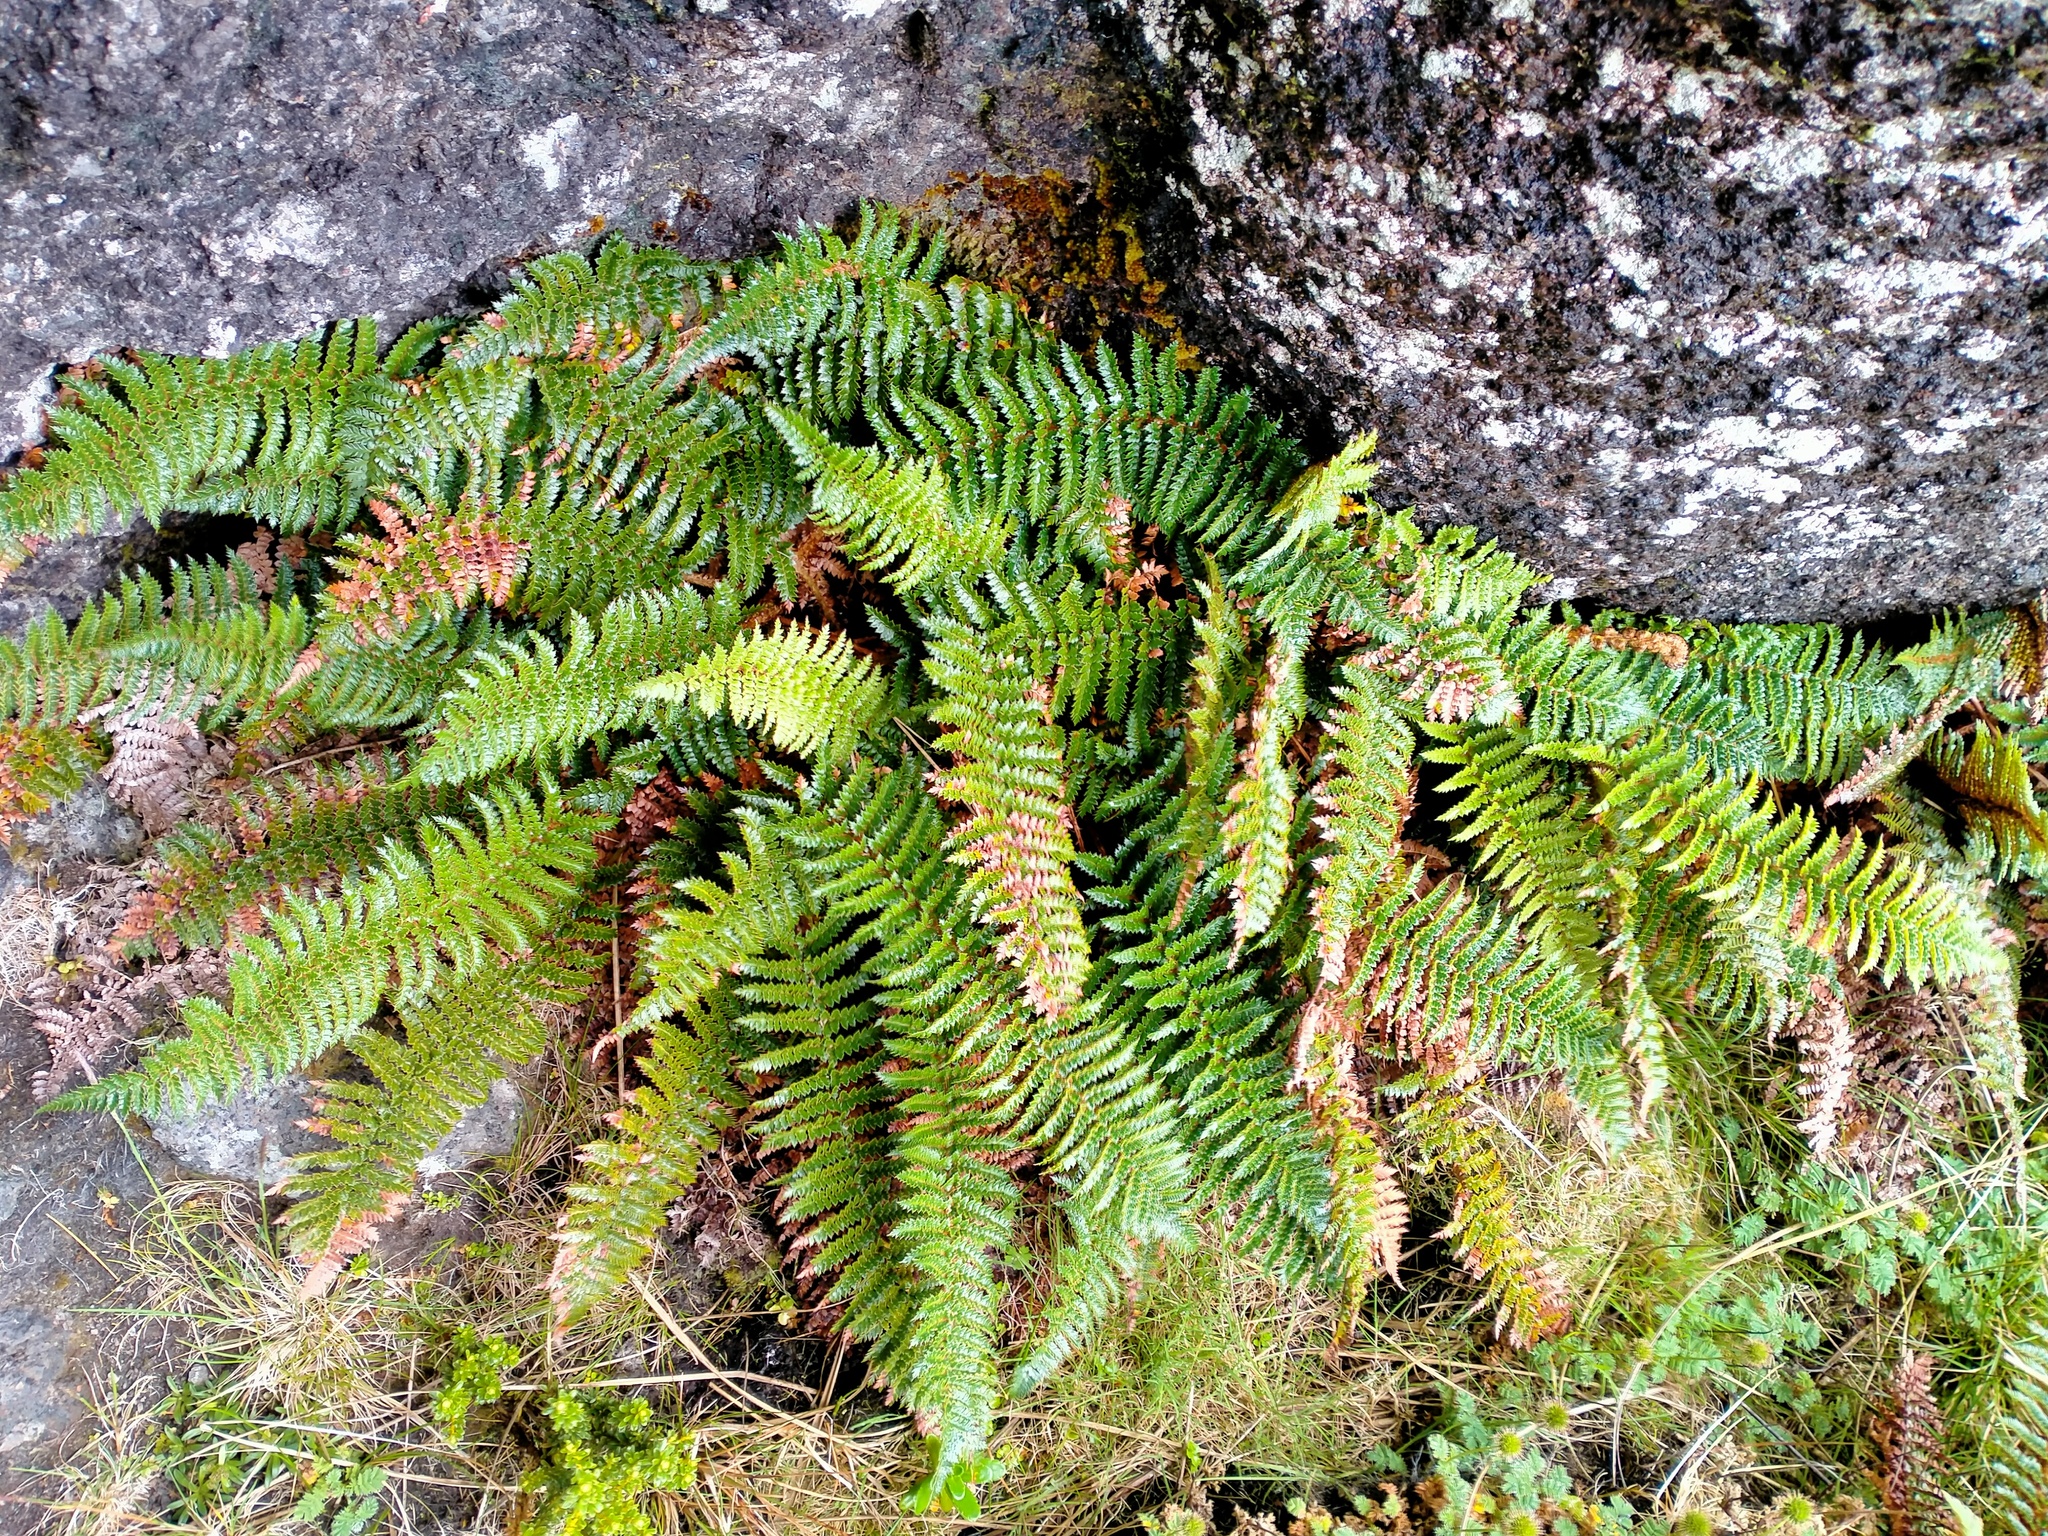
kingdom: Plantae
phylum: Tracheophyta
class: Polypodiopsida
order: Polypodiales
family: Dryopteridaceae
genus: Polystichum
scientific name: Polystichum vestitum
